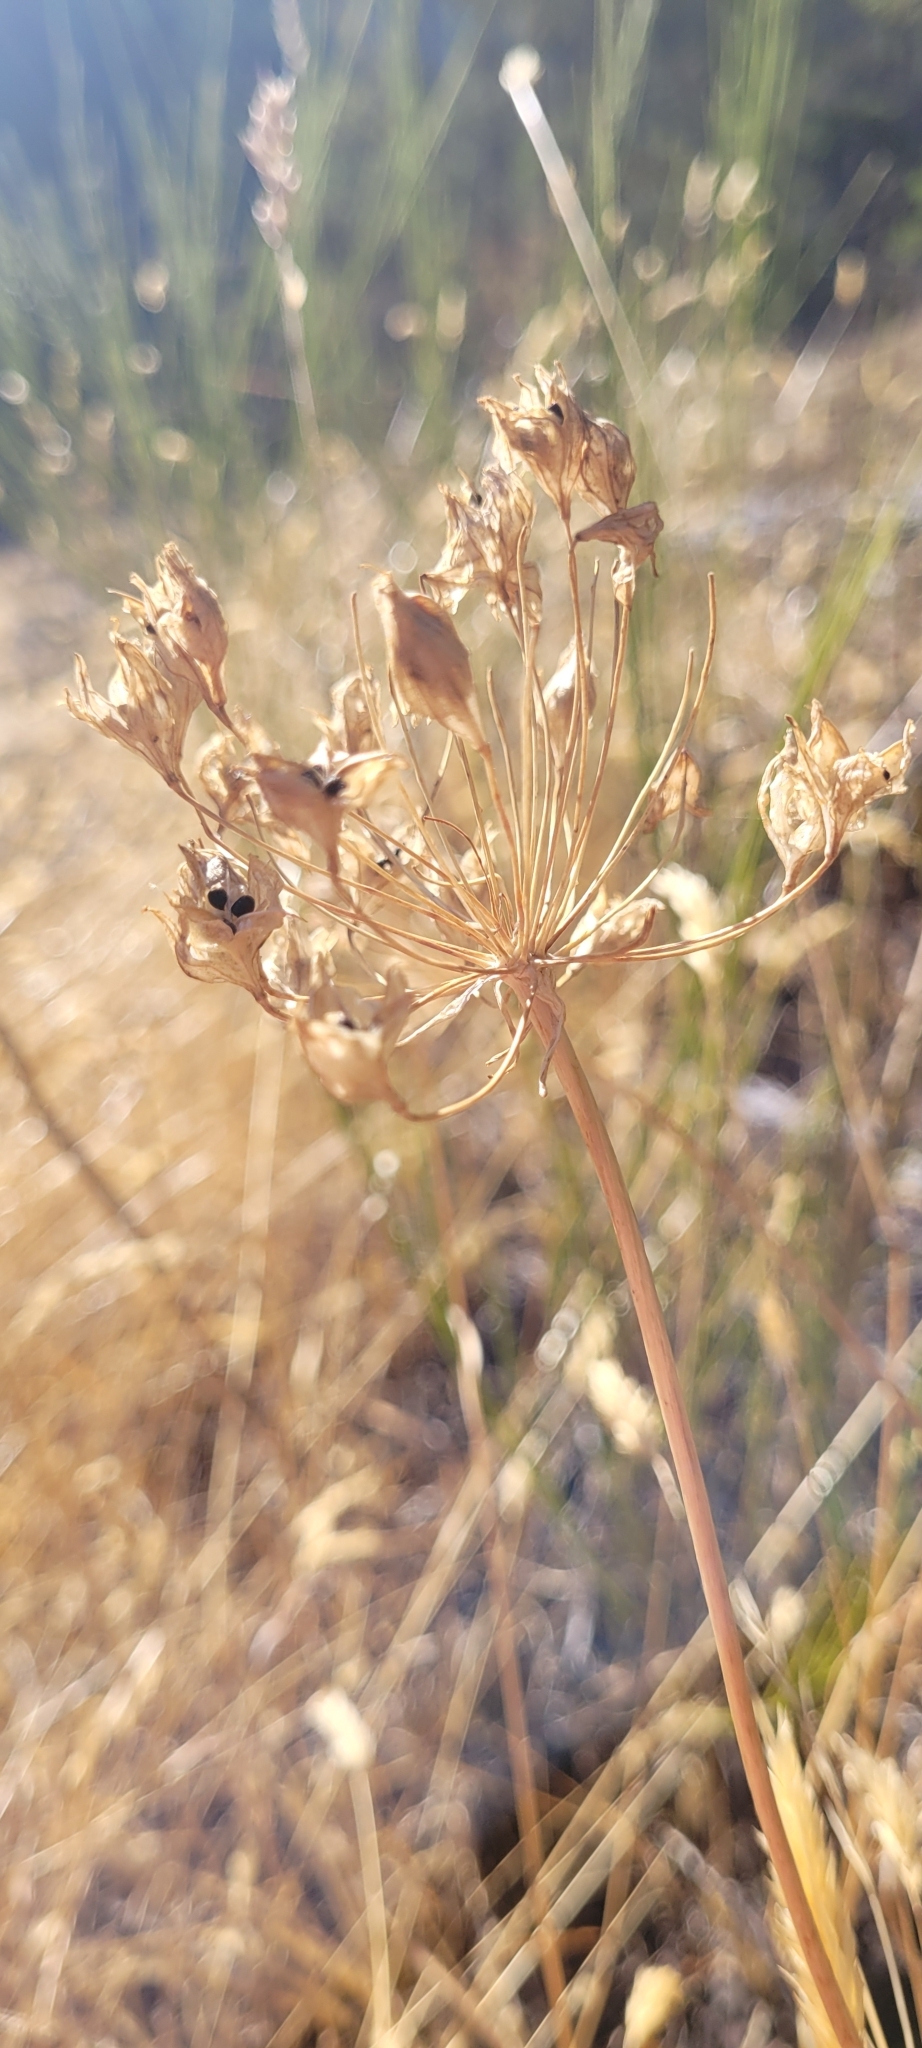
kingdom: Plantae
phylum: Tracheophyta
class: Liliopsida
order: Asparagales
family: Amaryllidaceae
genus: Allium
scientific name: Allium cernuum
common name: Nodding onion
